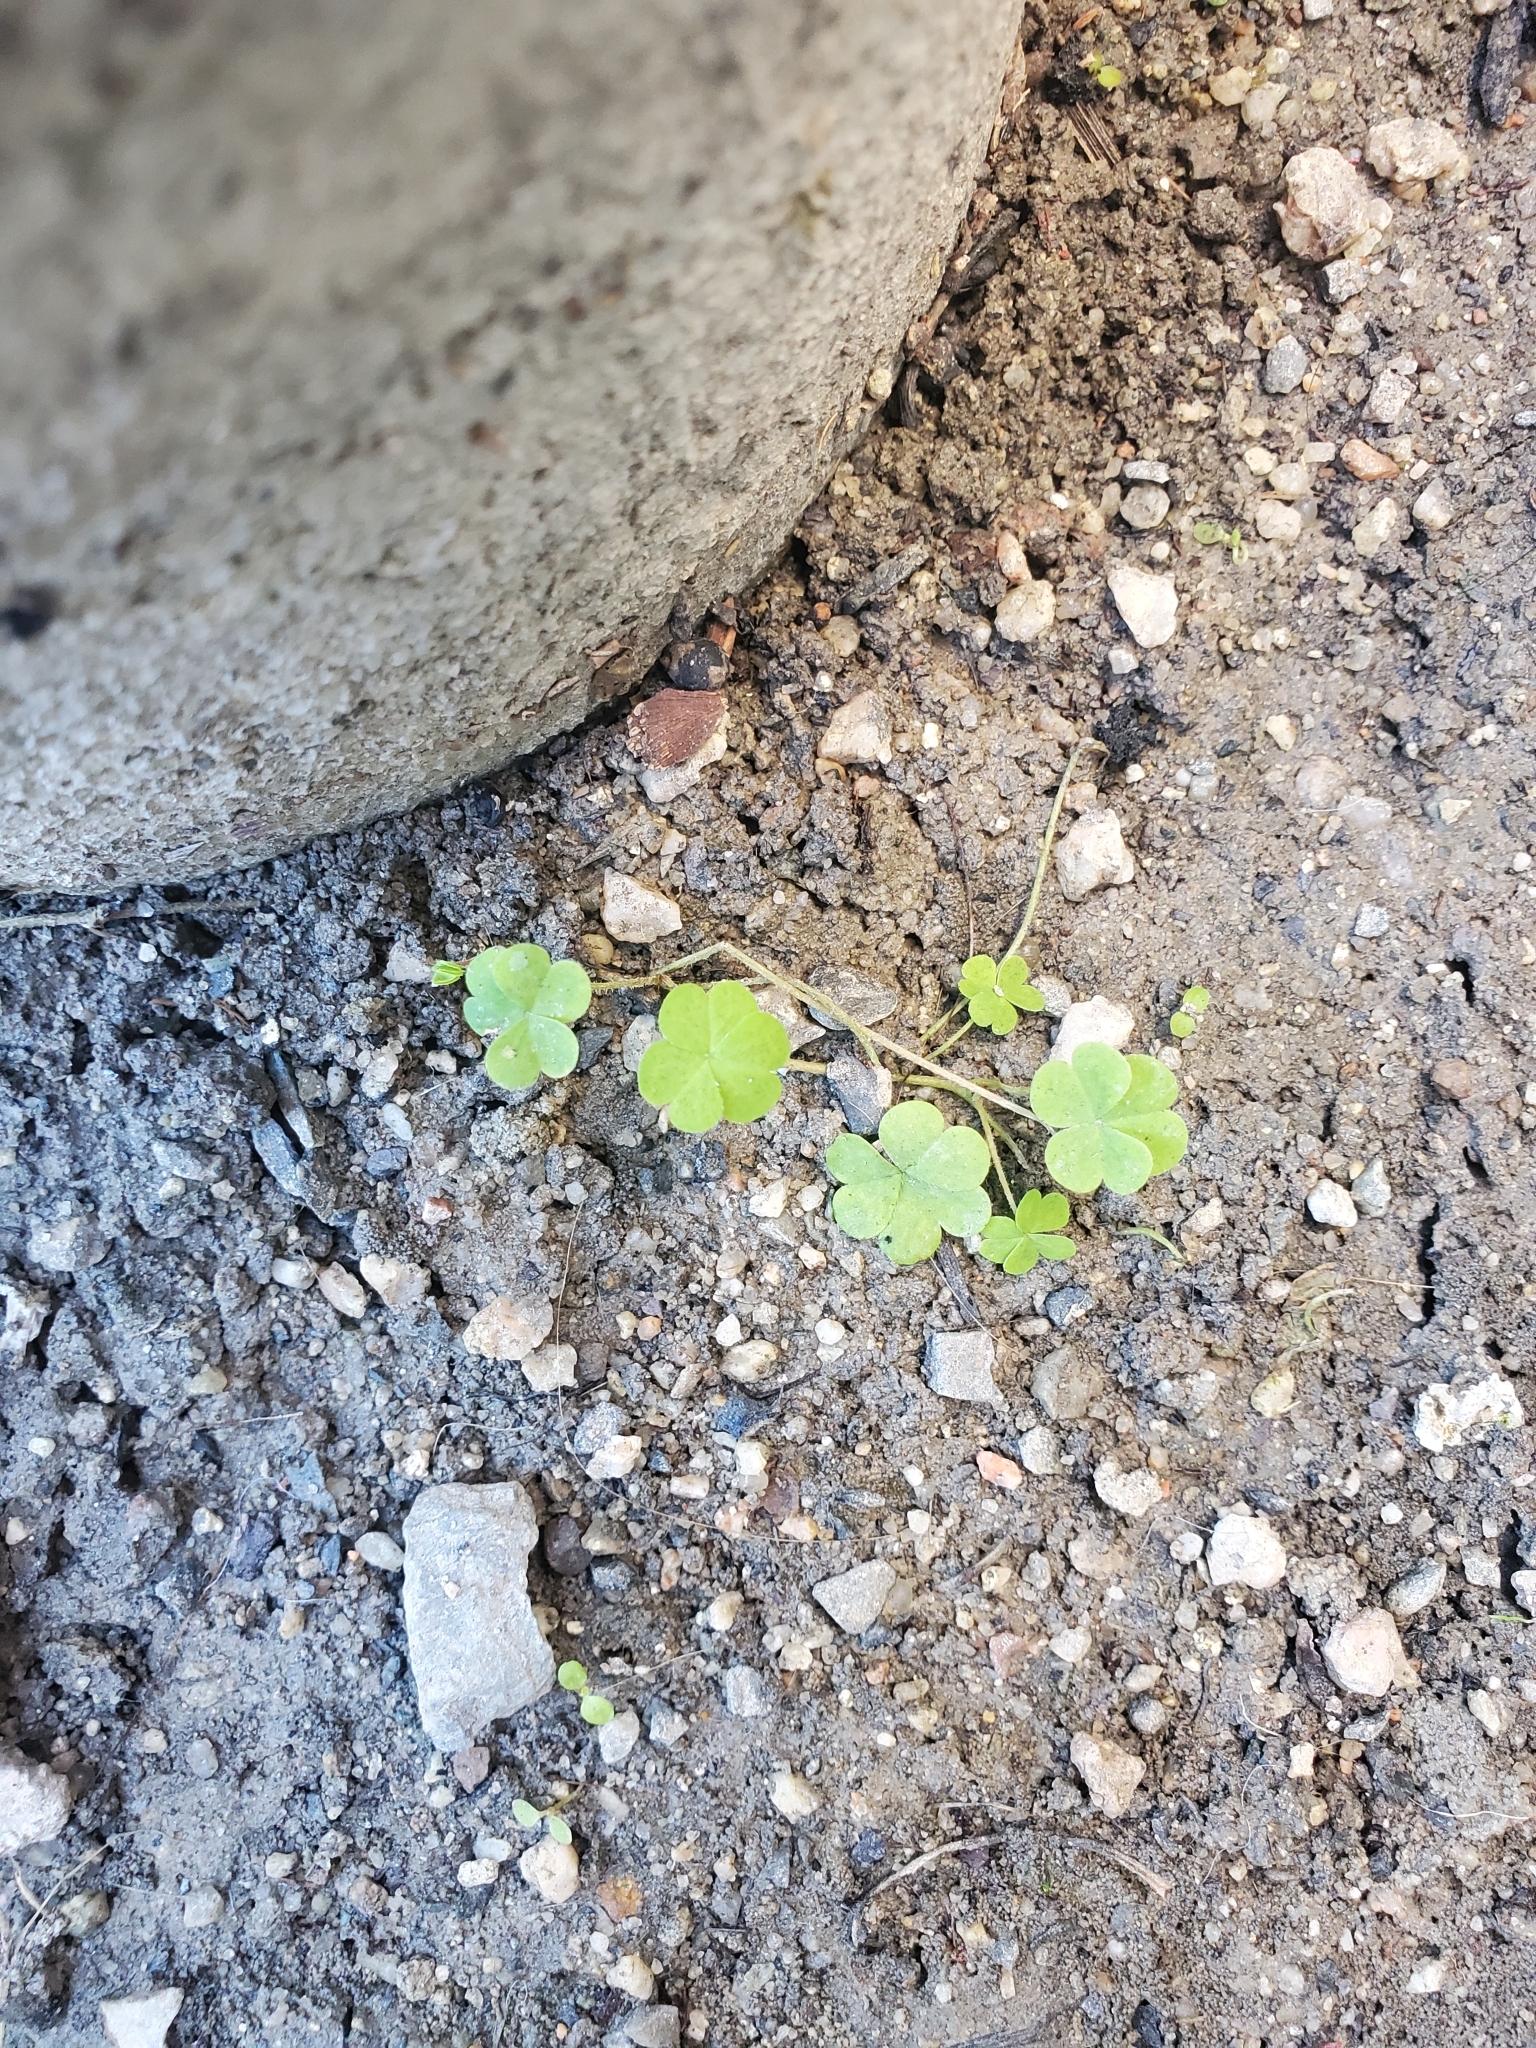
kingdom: Plantae
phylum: Tracheophyta
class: Magnoliopsida
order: Oxalidales
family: Oxalidaceae
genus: Oxalis
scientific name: Oxalis corniculata
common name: Procumbent yellow-sorrel
